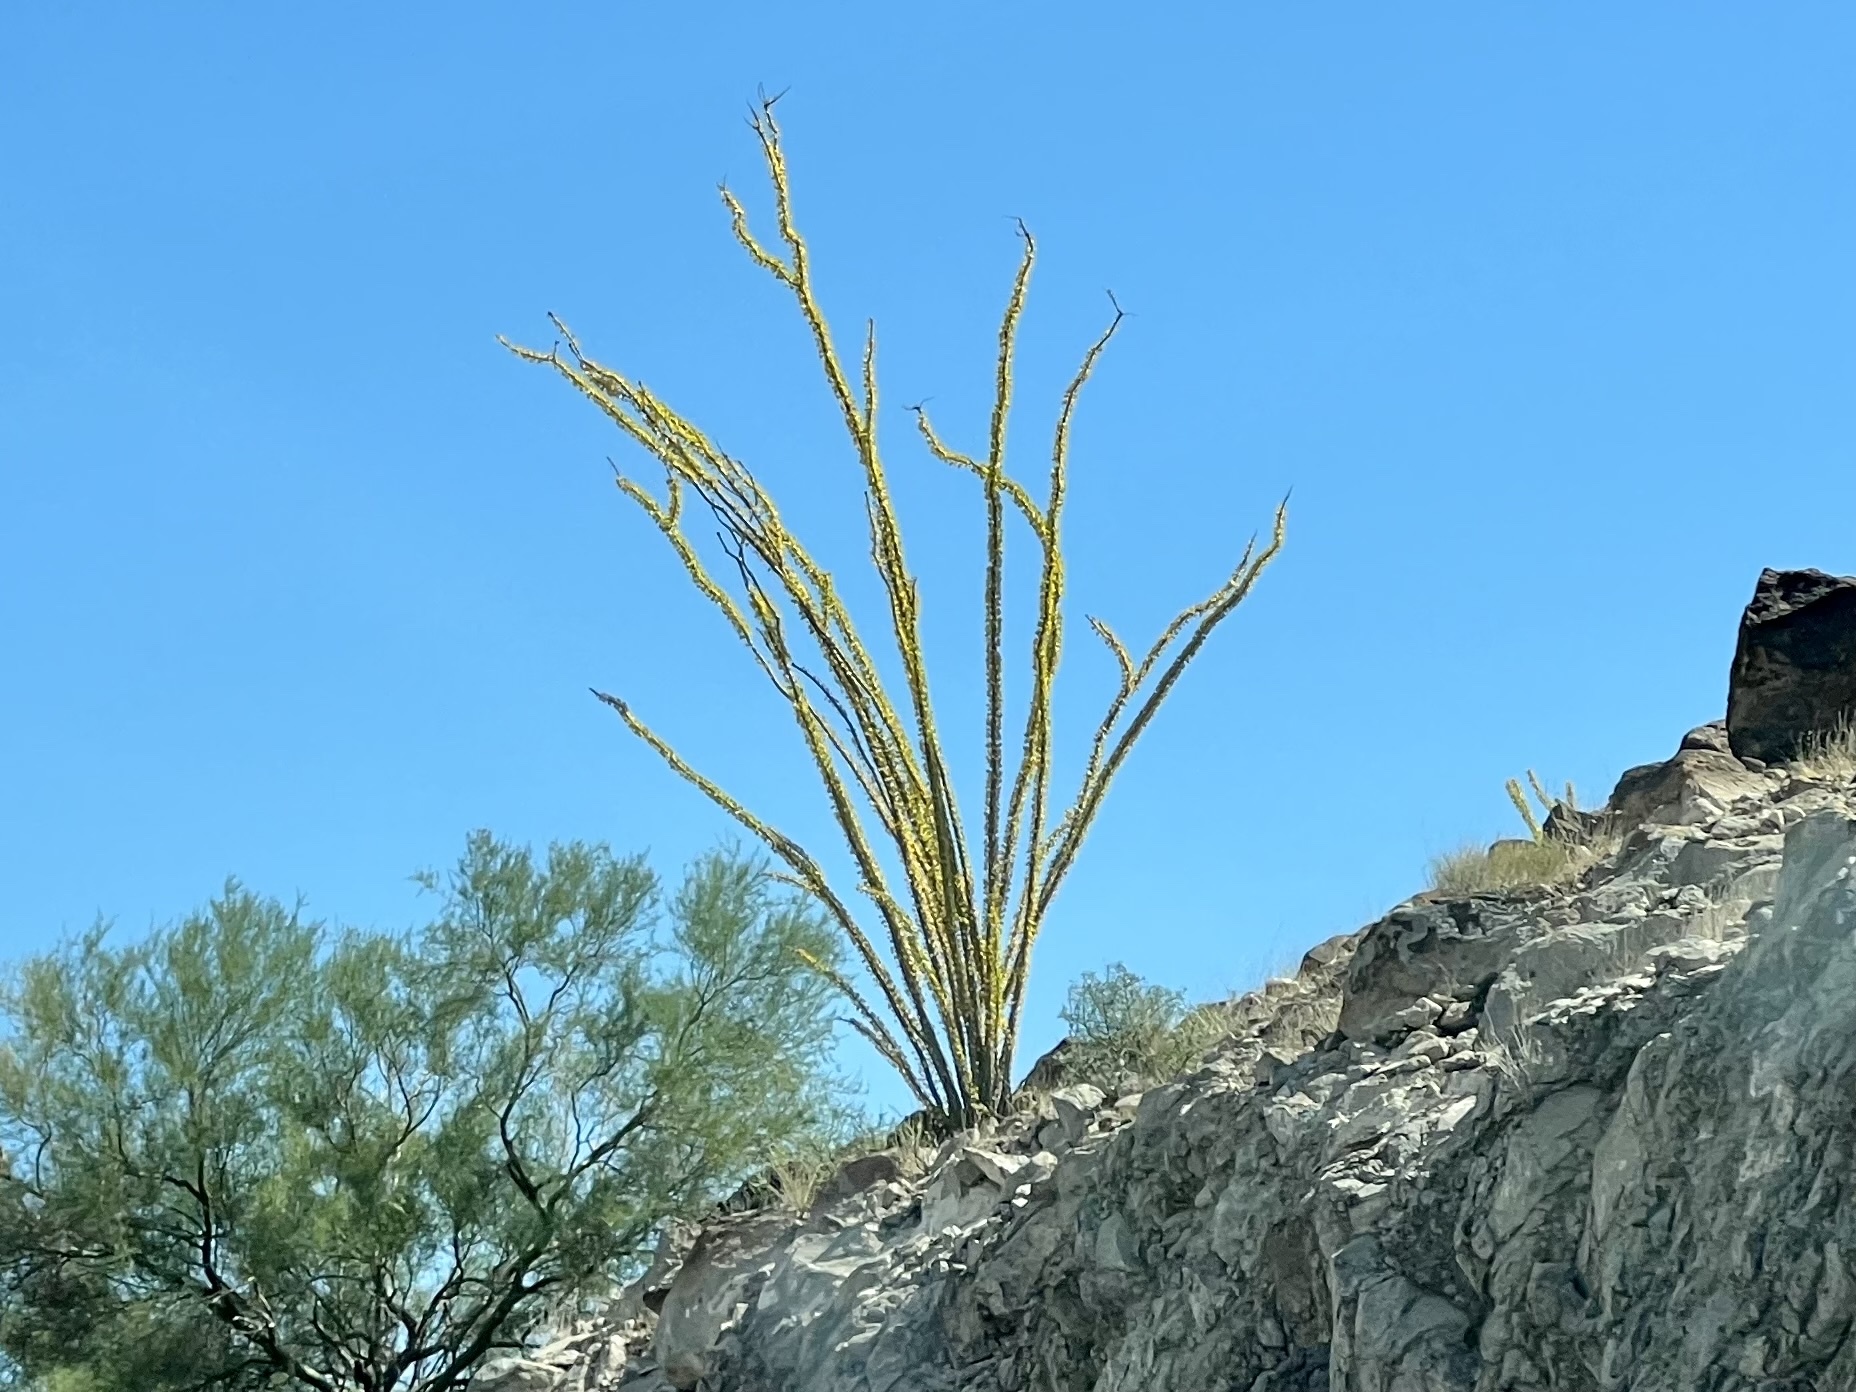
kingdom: Plantae
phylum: Tracheophyta
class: Magnoliopsida
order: Ericales
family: Fouquieriaceae
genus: Fouquieria
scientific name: Fouquieria splendens
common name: Vine-cactus
